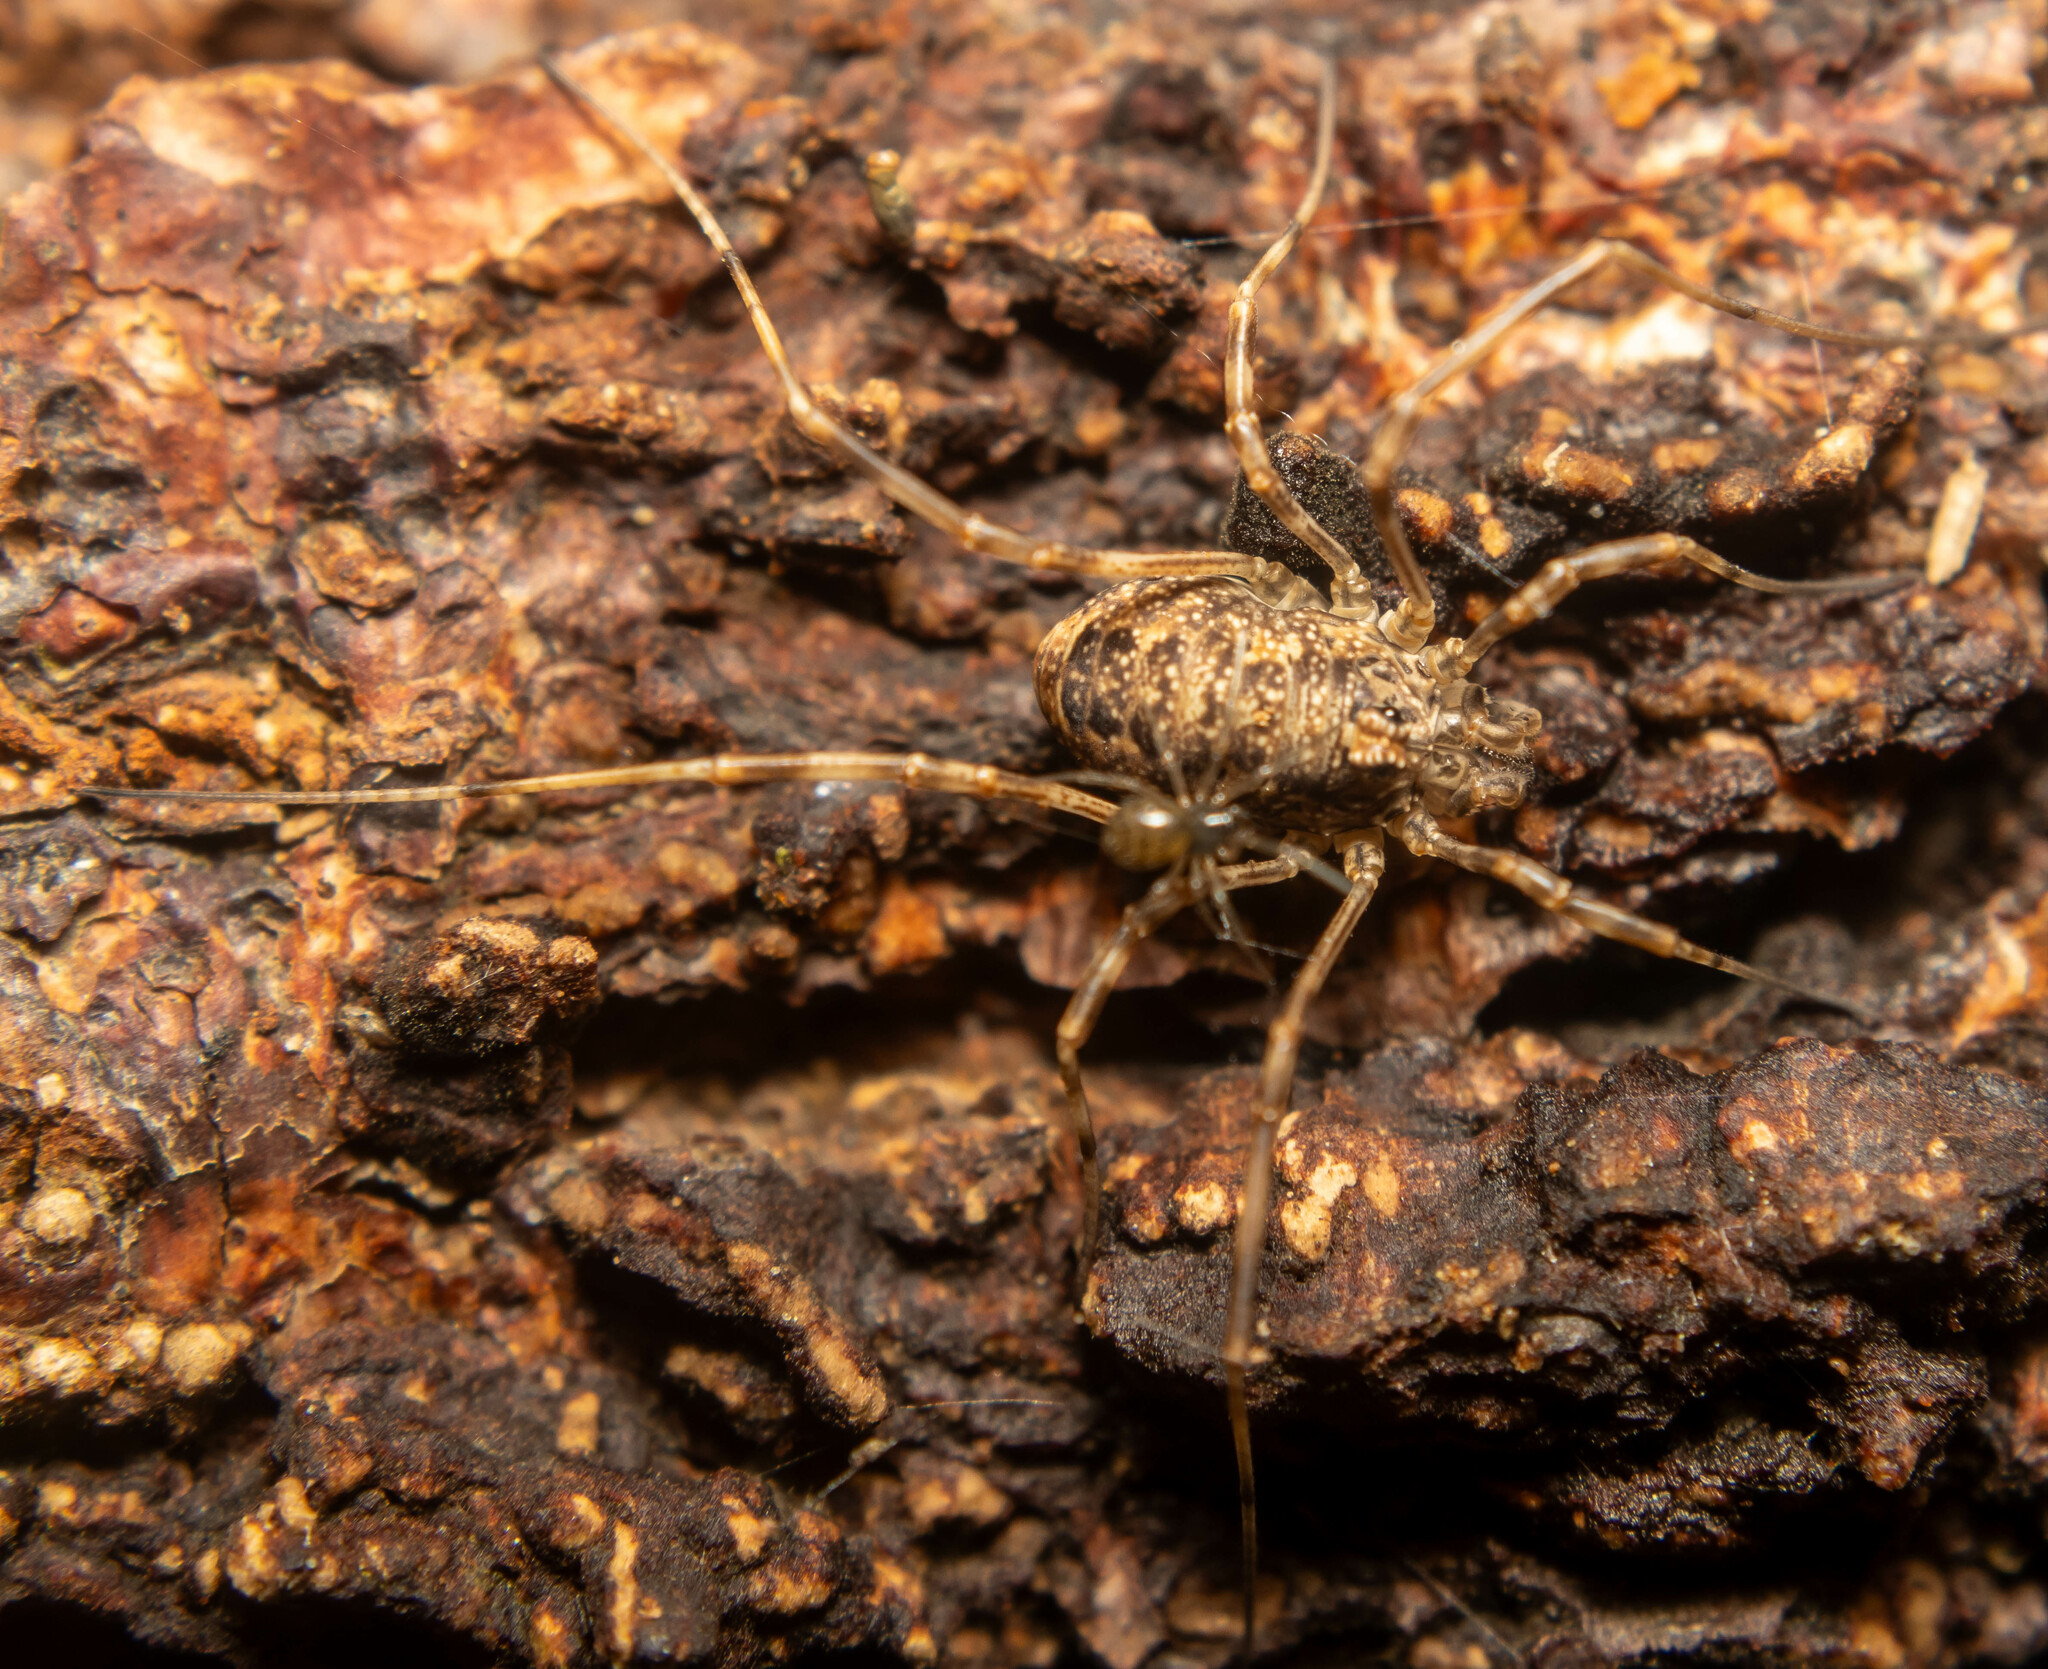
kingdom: Animalia
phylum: Arthropoda
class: Arachnida
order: Opiliones
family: Phalangiidae
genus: Rilaena
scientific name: Rilaena triangularis
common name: Spring harvestman
